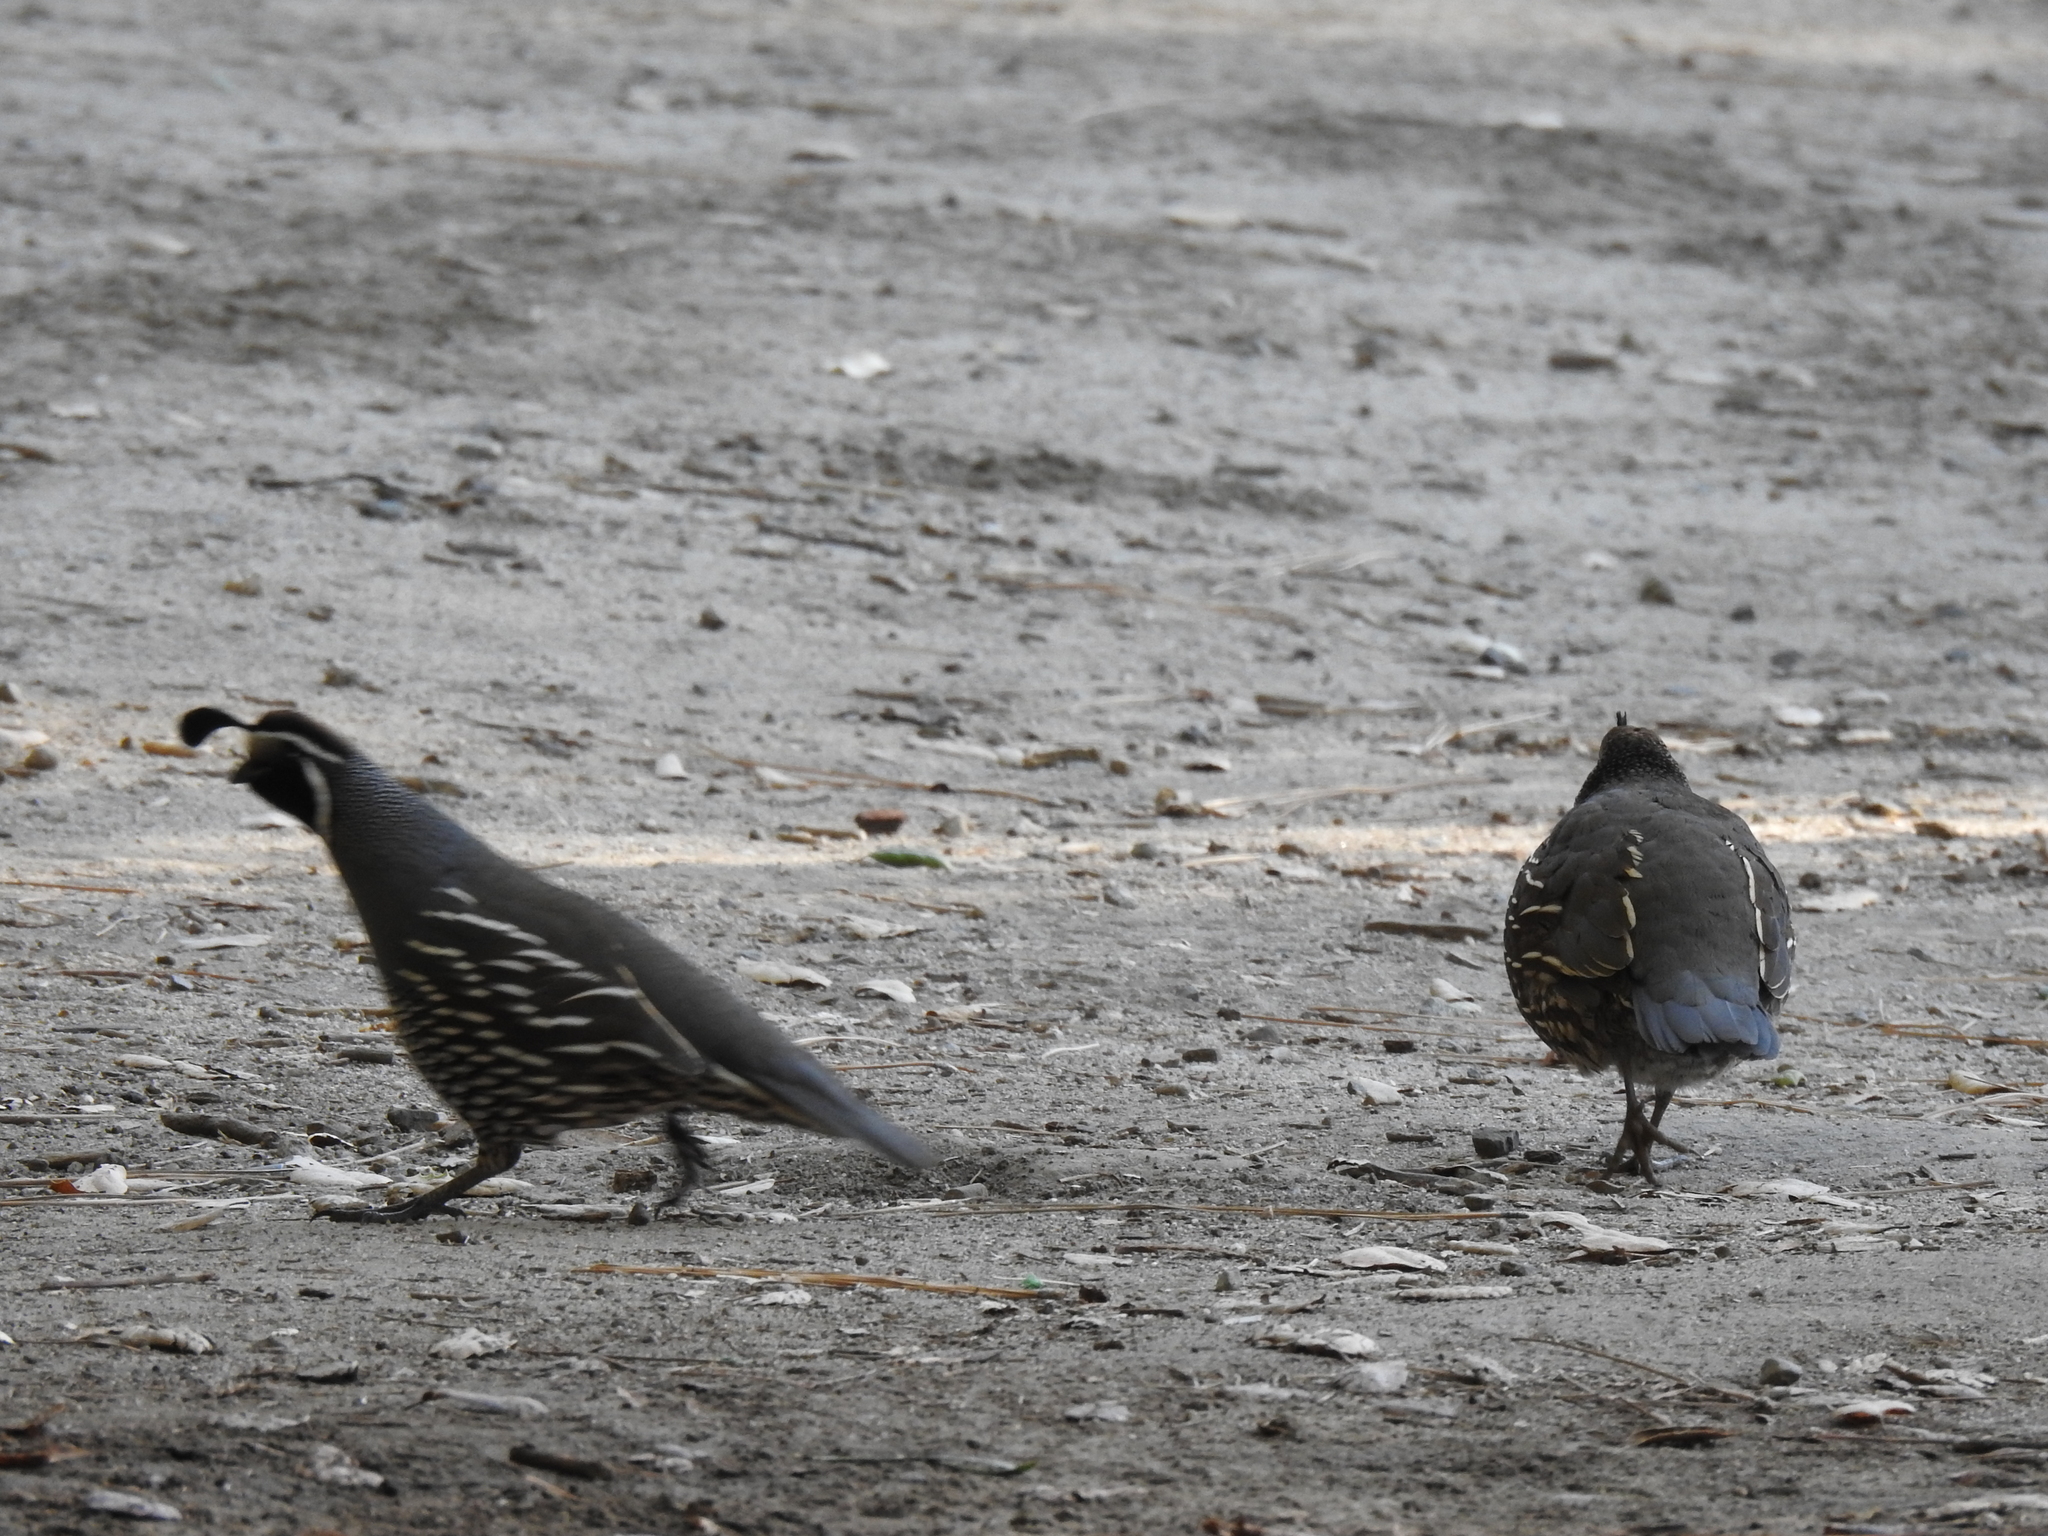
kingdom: Animalia
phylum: Chordata
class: Aves
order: Galliformes
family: Odontophoridae
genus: Callipepla
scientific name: Callipepla californica
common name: California quail
